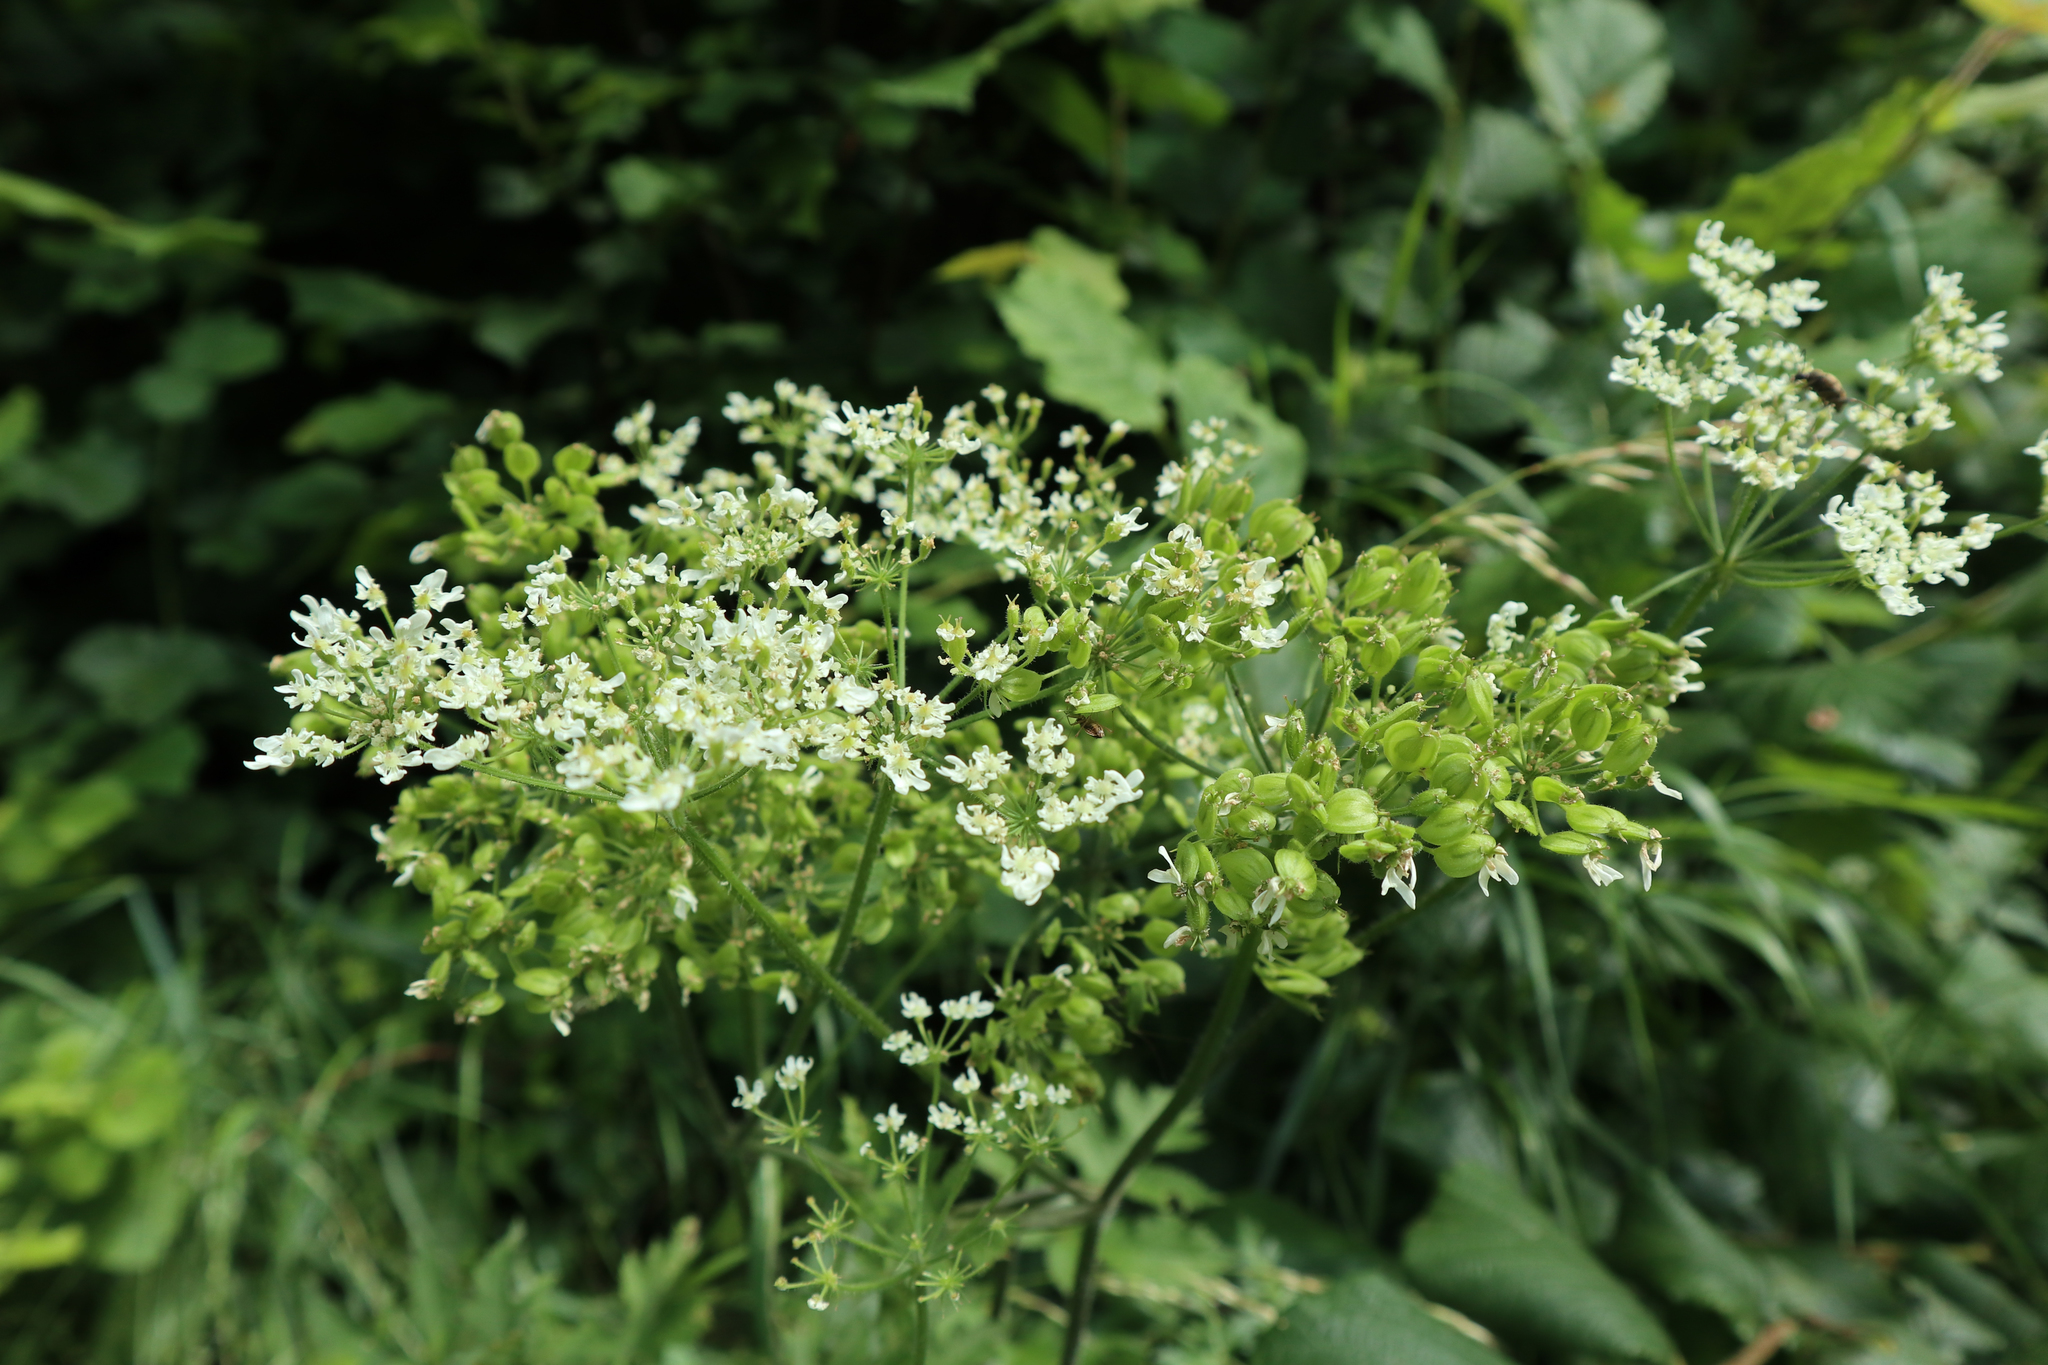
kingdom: Plantae
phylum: Tracheophyta
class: Magnoliopsida
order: Apiales
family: Apiaceae
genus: Heracleum
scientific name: Heracleum sphondylium
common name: Hogweed
